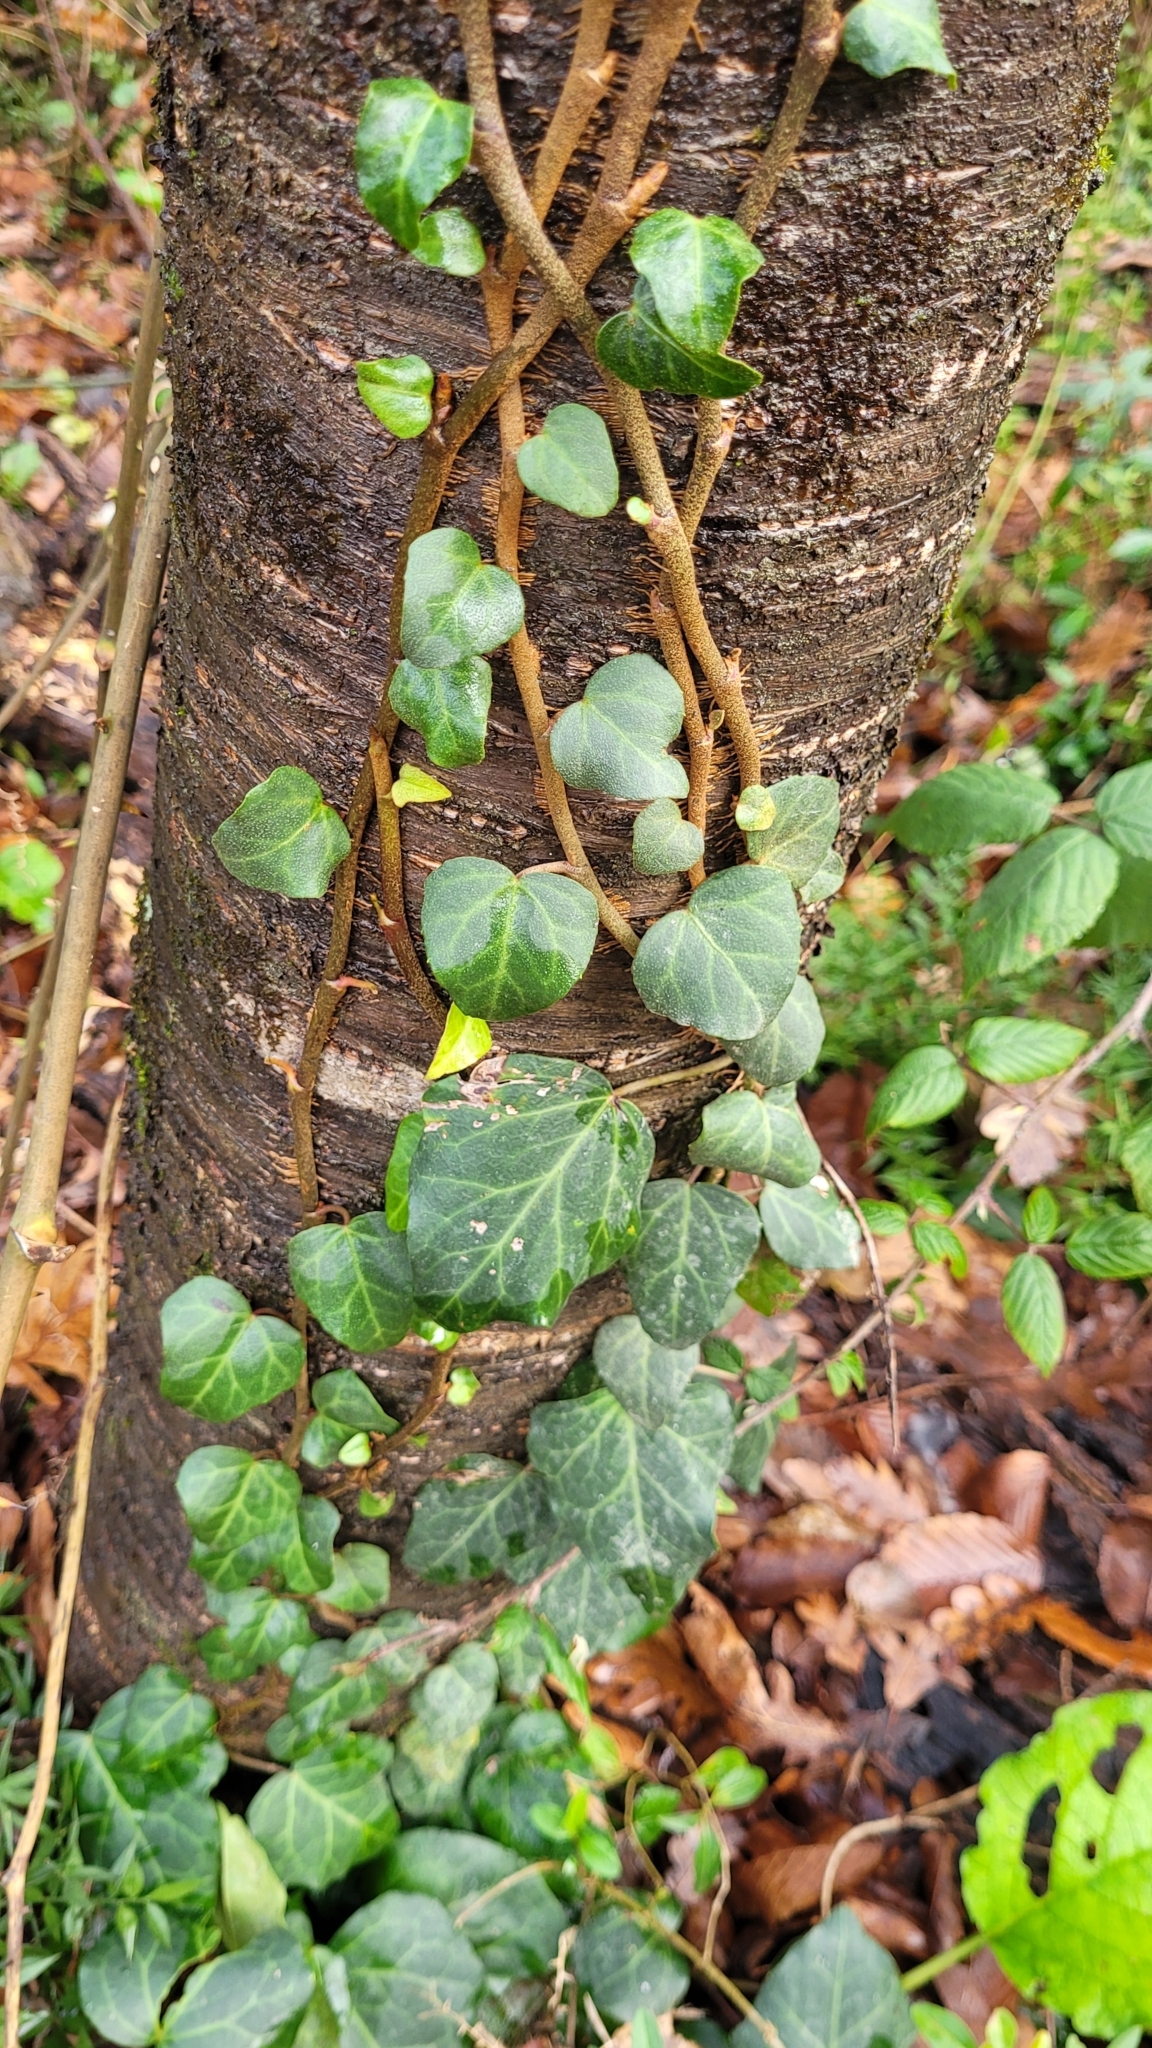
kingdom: Plantae
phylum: Tracheophyta
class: Magnoliopsida
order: Apiales
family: Araliaceae
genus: Hedera
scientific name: Hedera colchica
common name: Persian ivy
